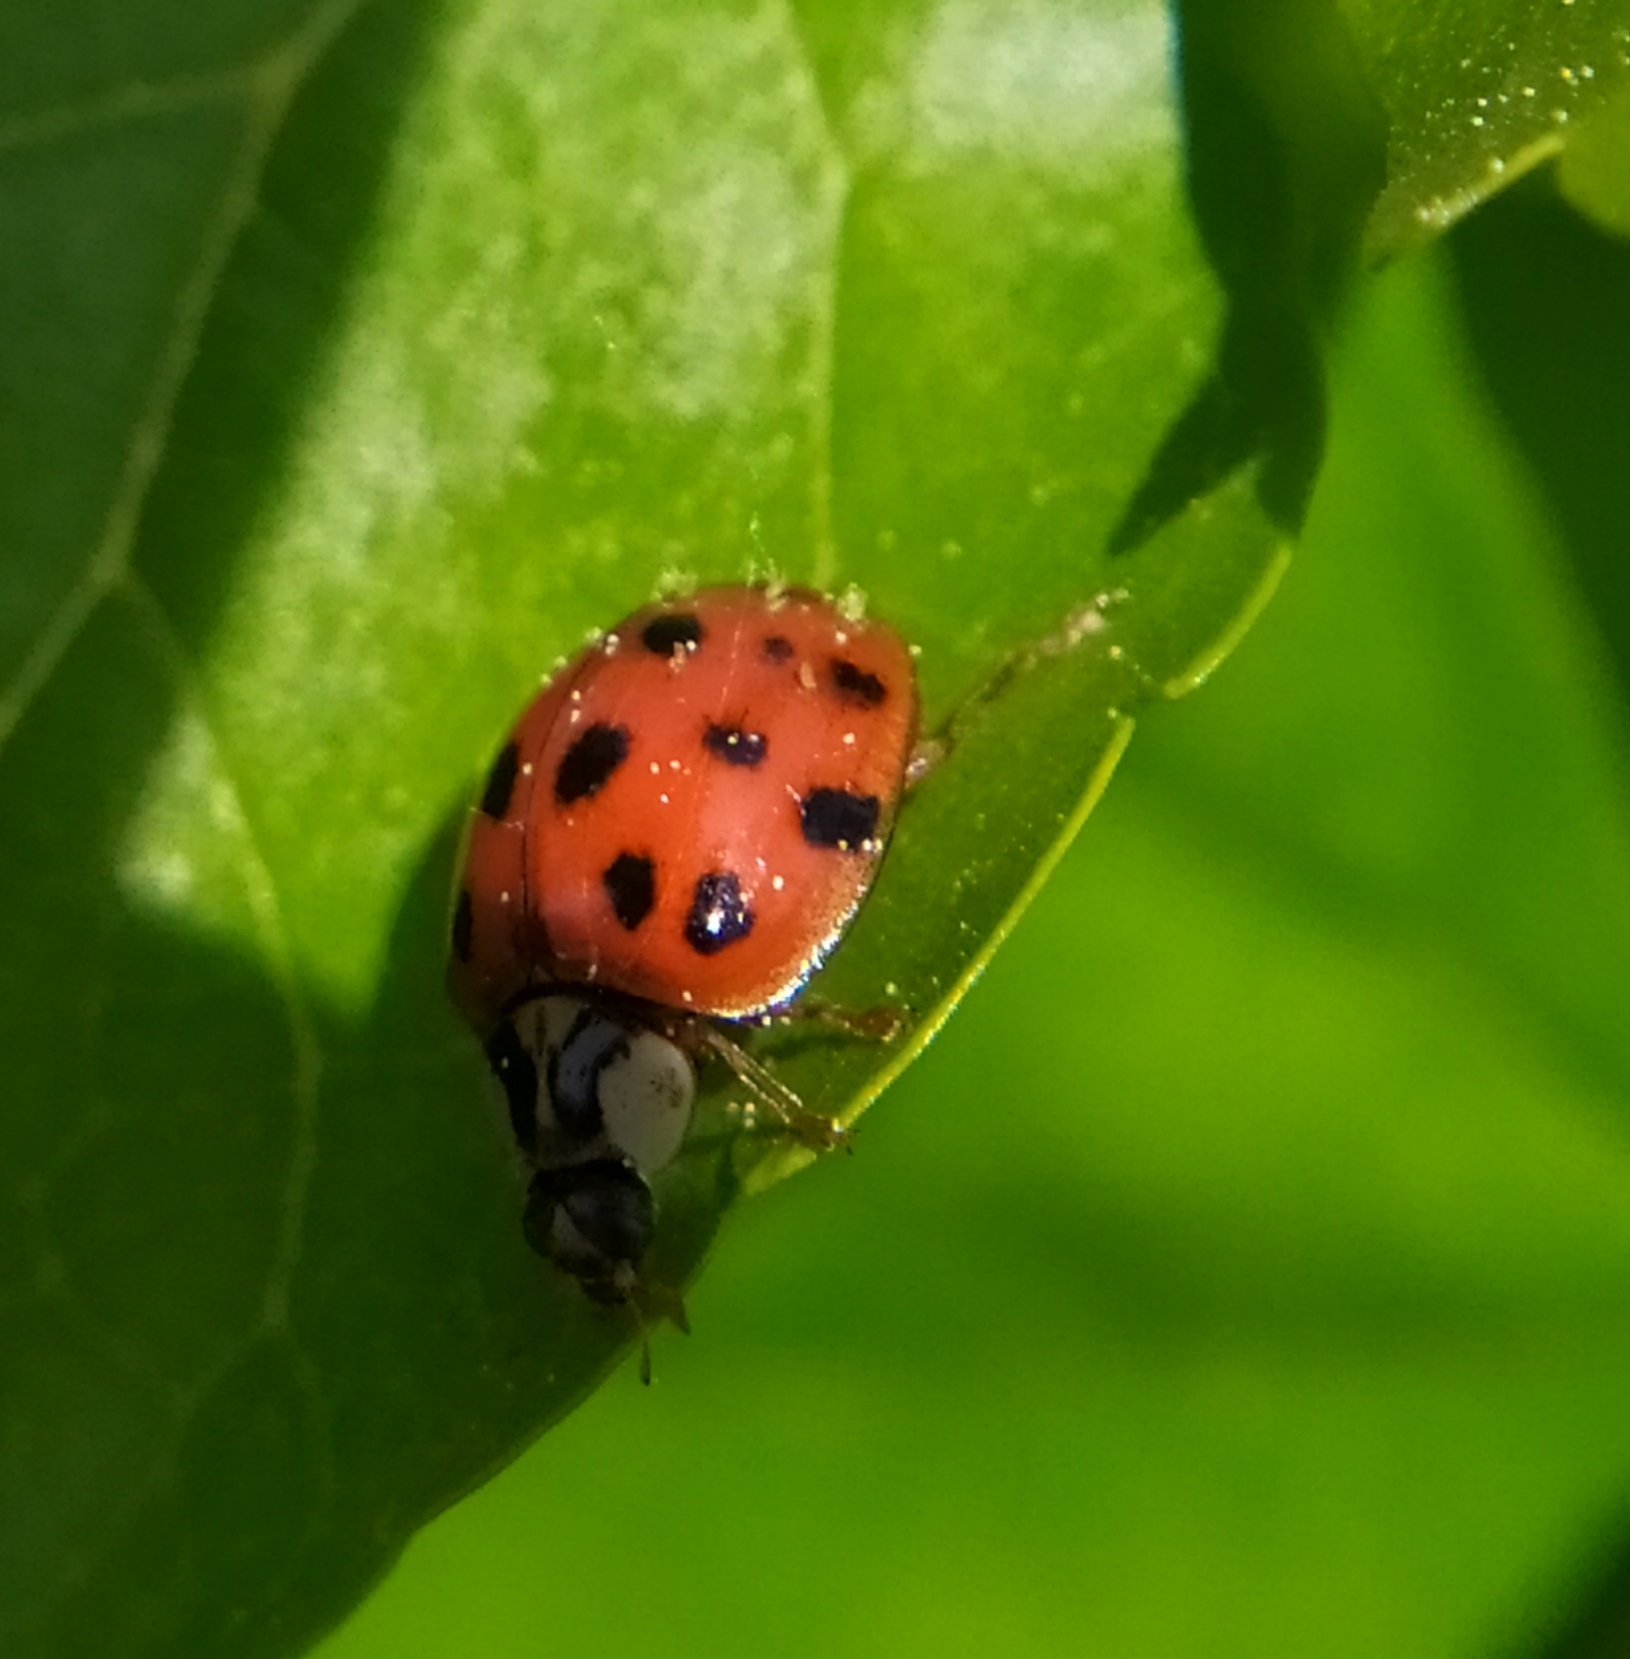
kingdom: Fungi
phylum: Ascomycota
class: Laboulbeniomycetes
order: Laboulbeniales
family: Laboulbeniaceae
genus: Hesperomyces
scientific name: Hesperomyces harmoniae
